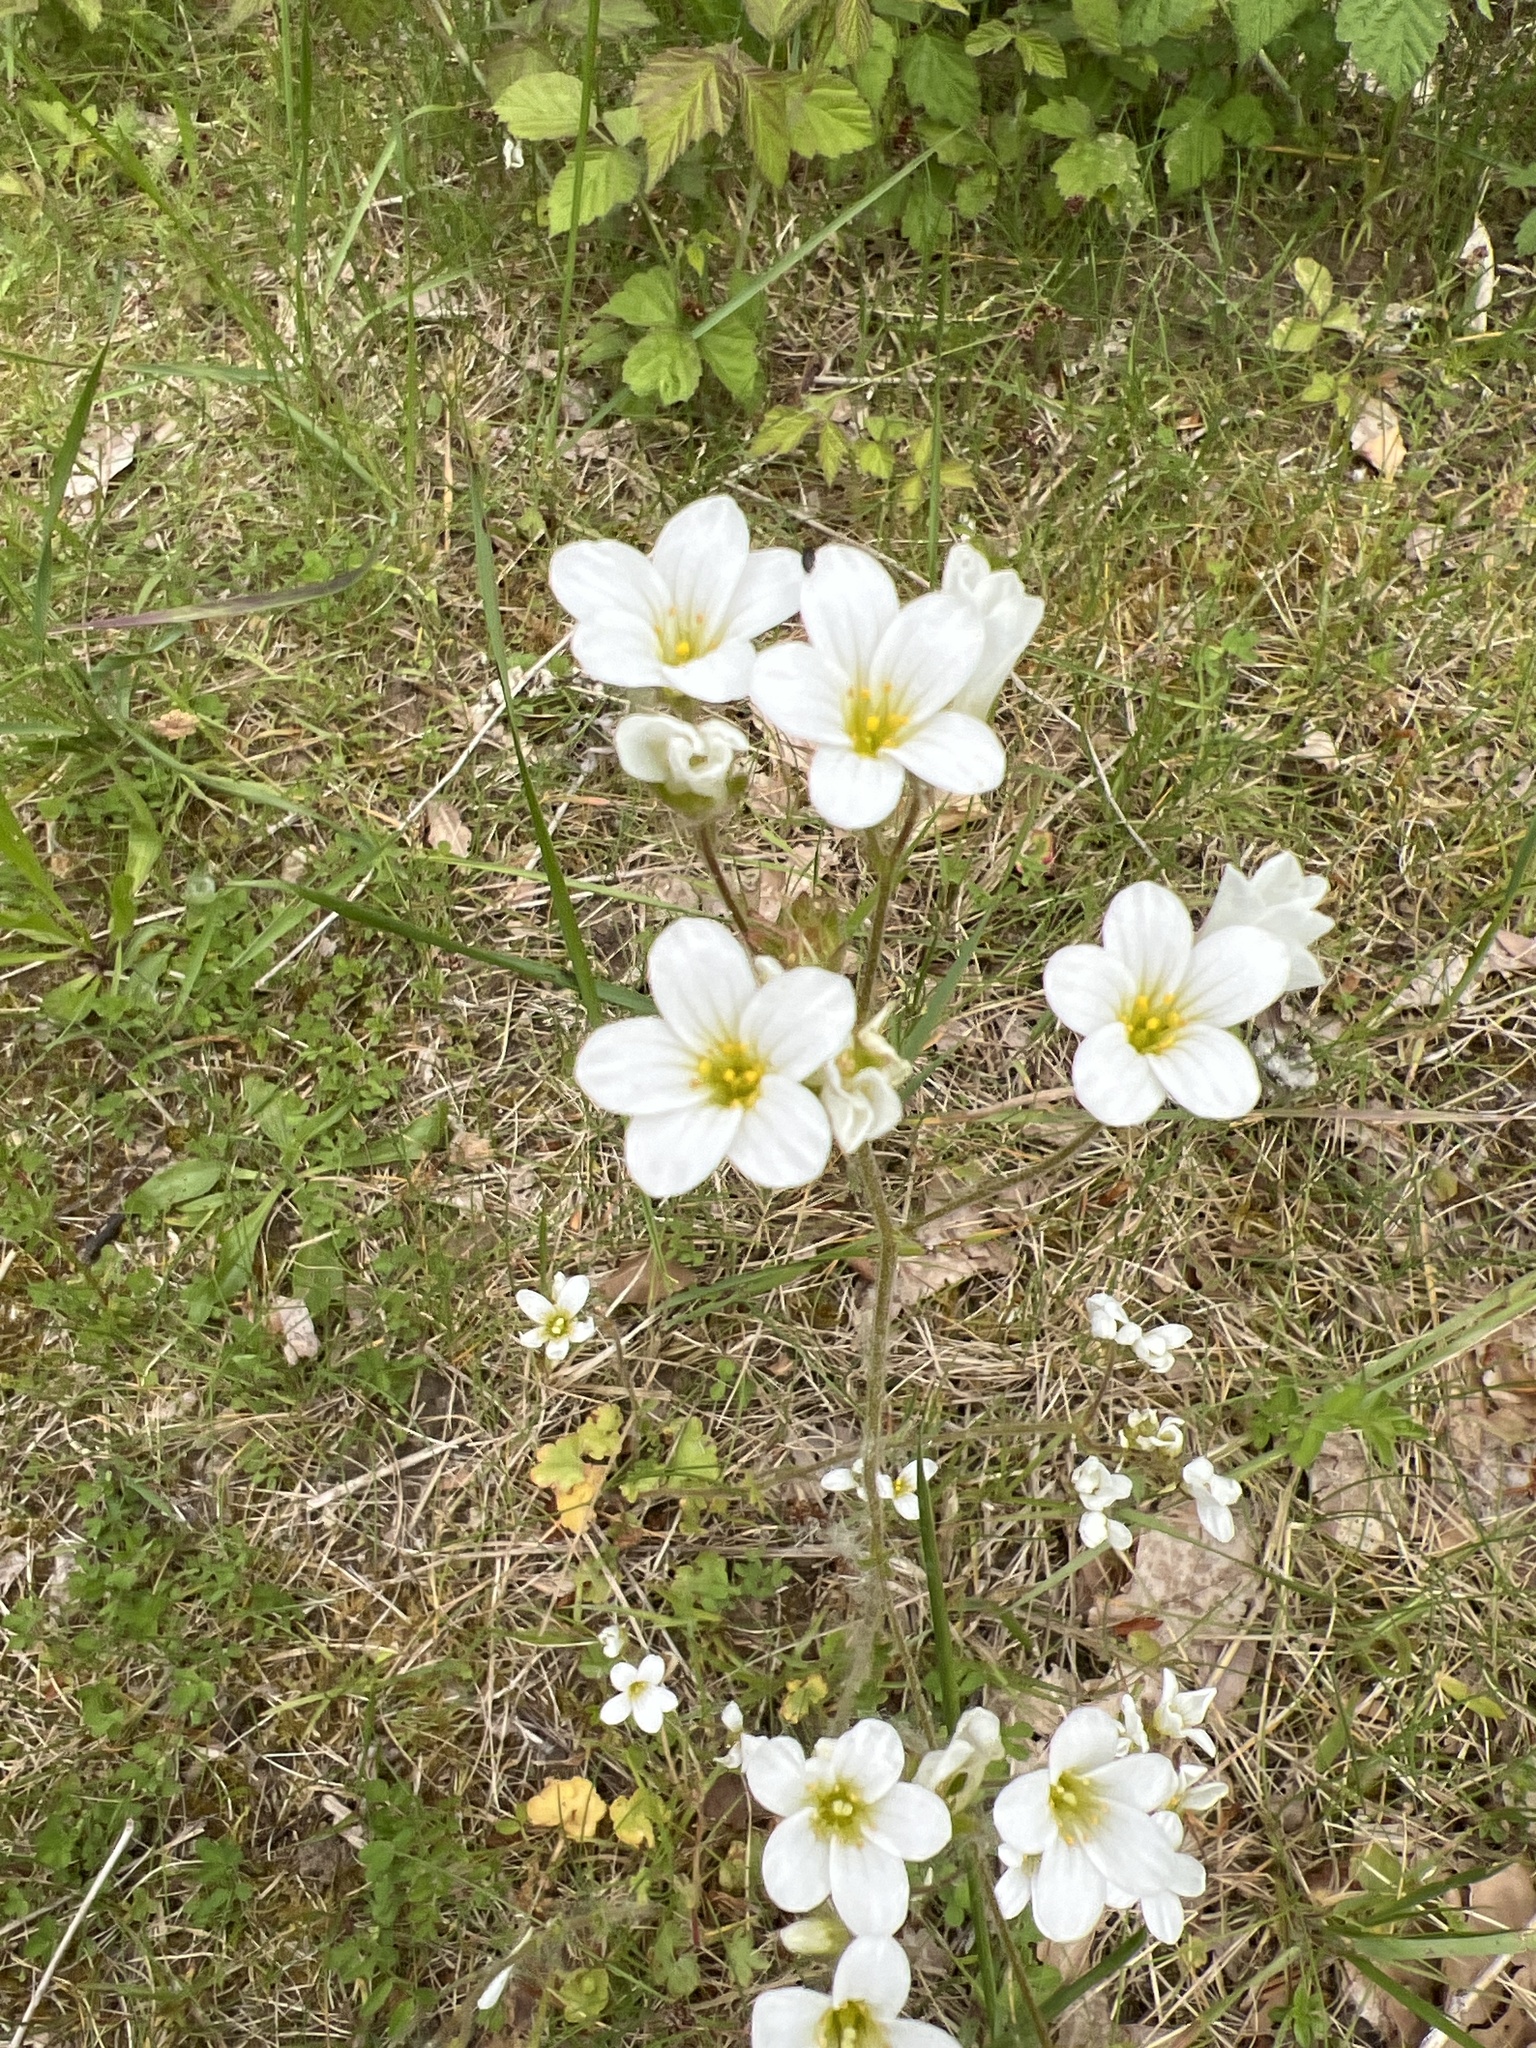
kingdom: Plantae
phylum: Tracheophyta
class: Magnoliopsida
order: Saxifragales
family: Saxifragaceae
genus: Saxifraga
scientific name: Saxifraga granulata
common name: Meadow saxifrage
